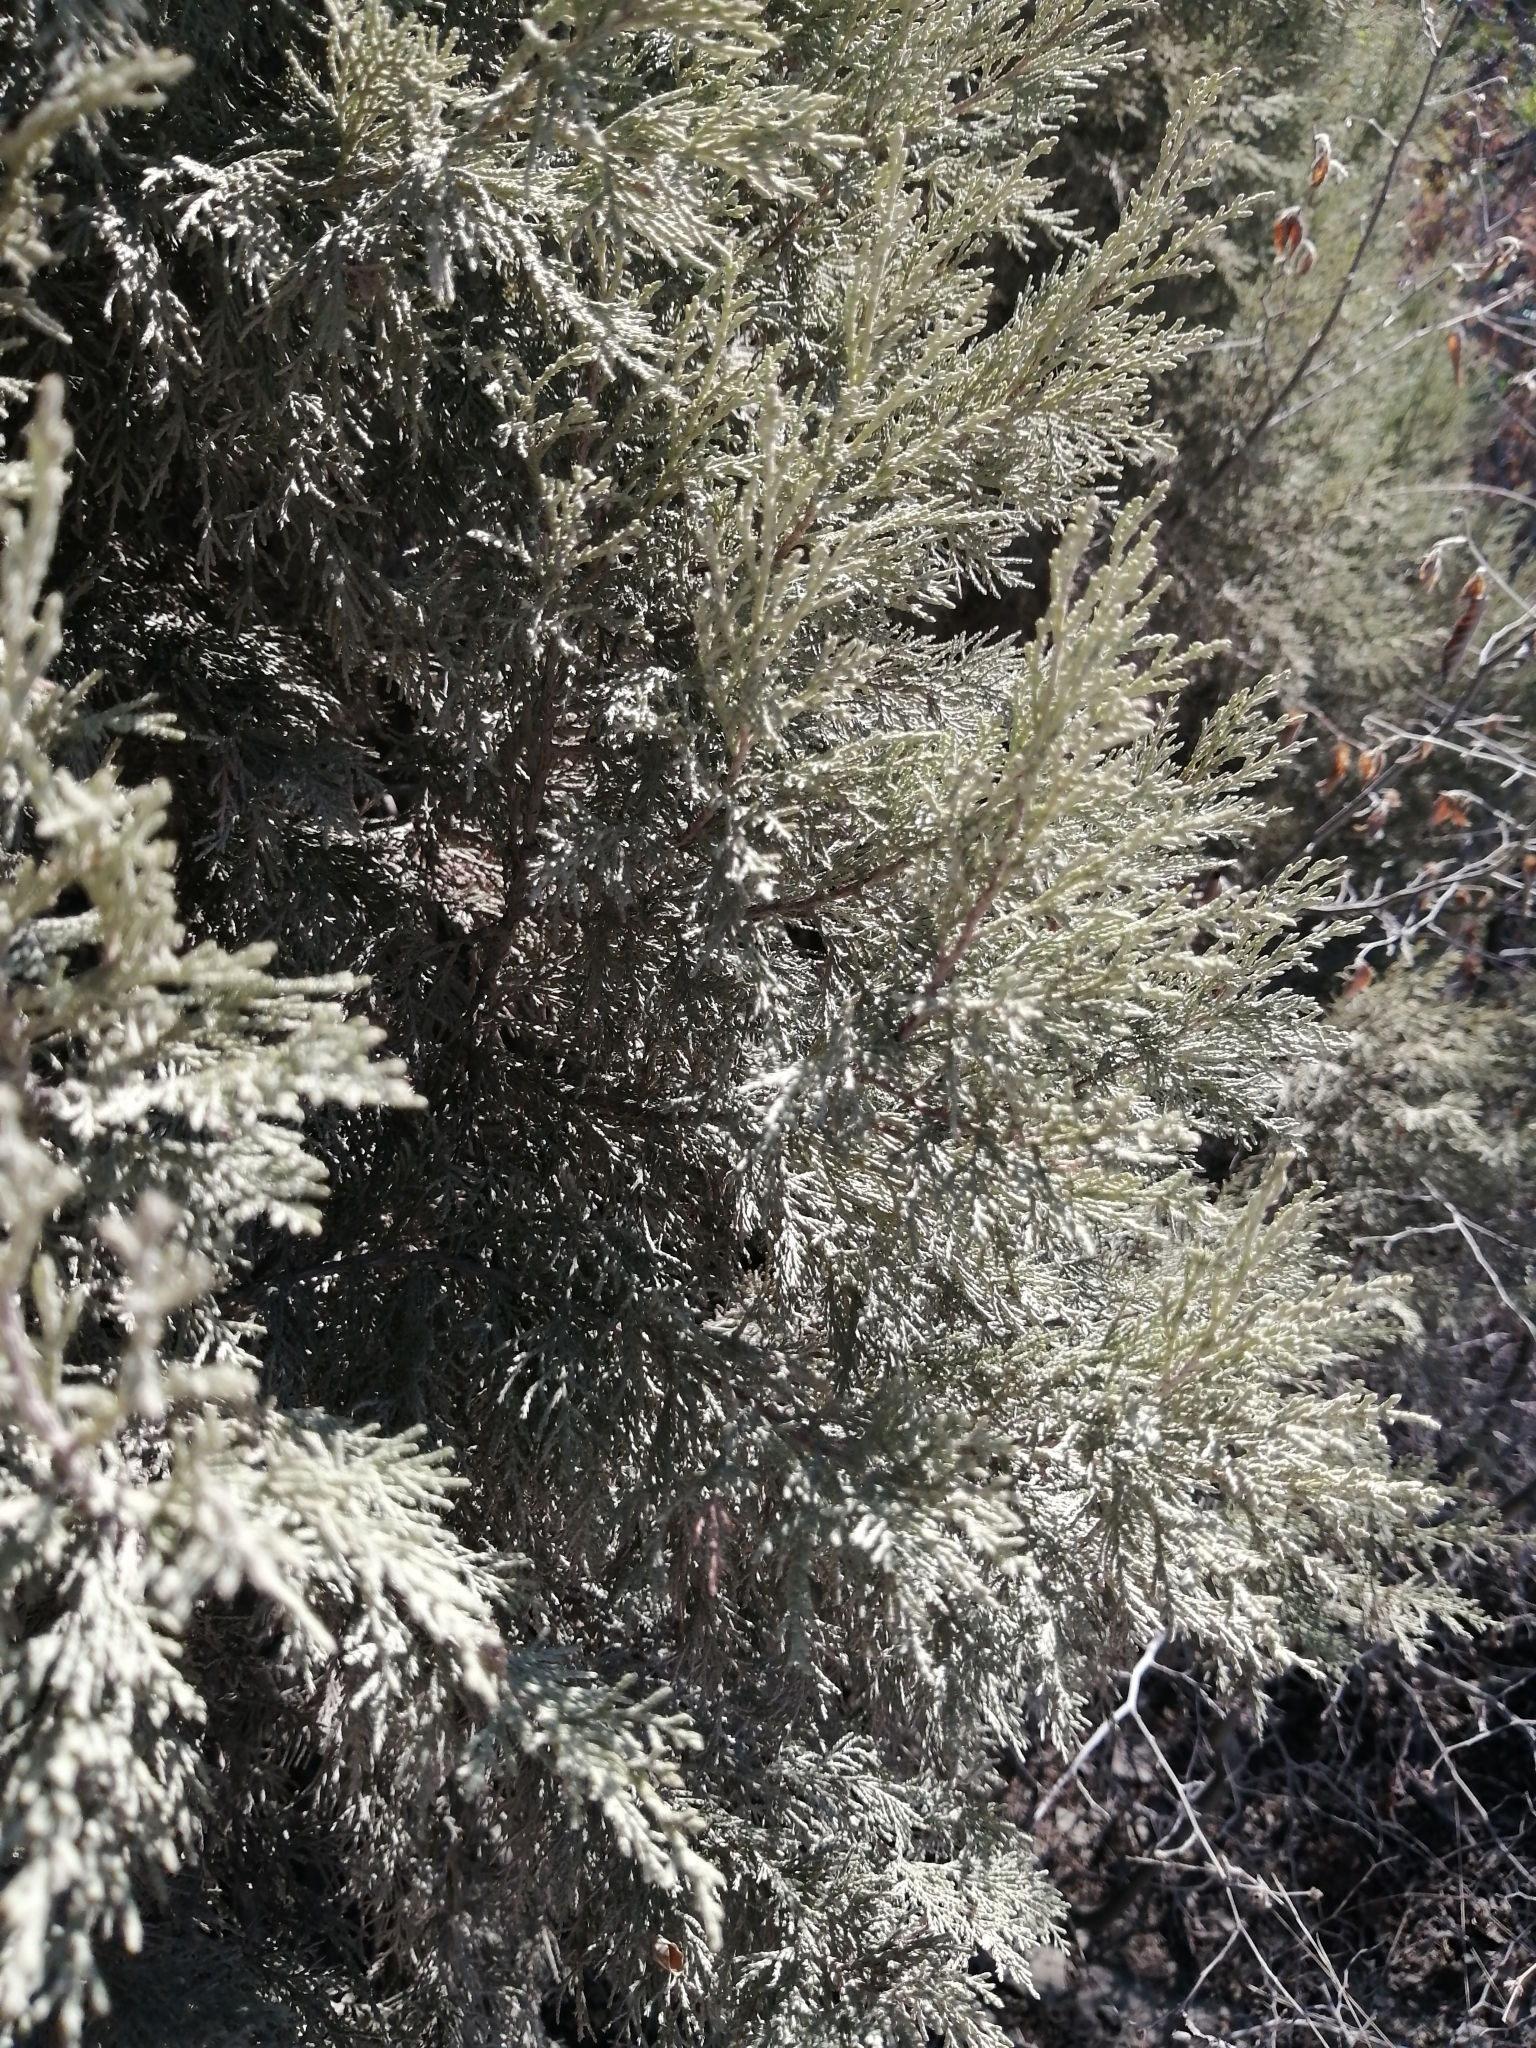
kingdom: Plantae
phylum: Tracheophyta
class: Pinopsida
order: Pinales
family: Cupressaceae
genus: Juniperus
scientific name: Juniperus excelsa
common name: Crimean juniper
